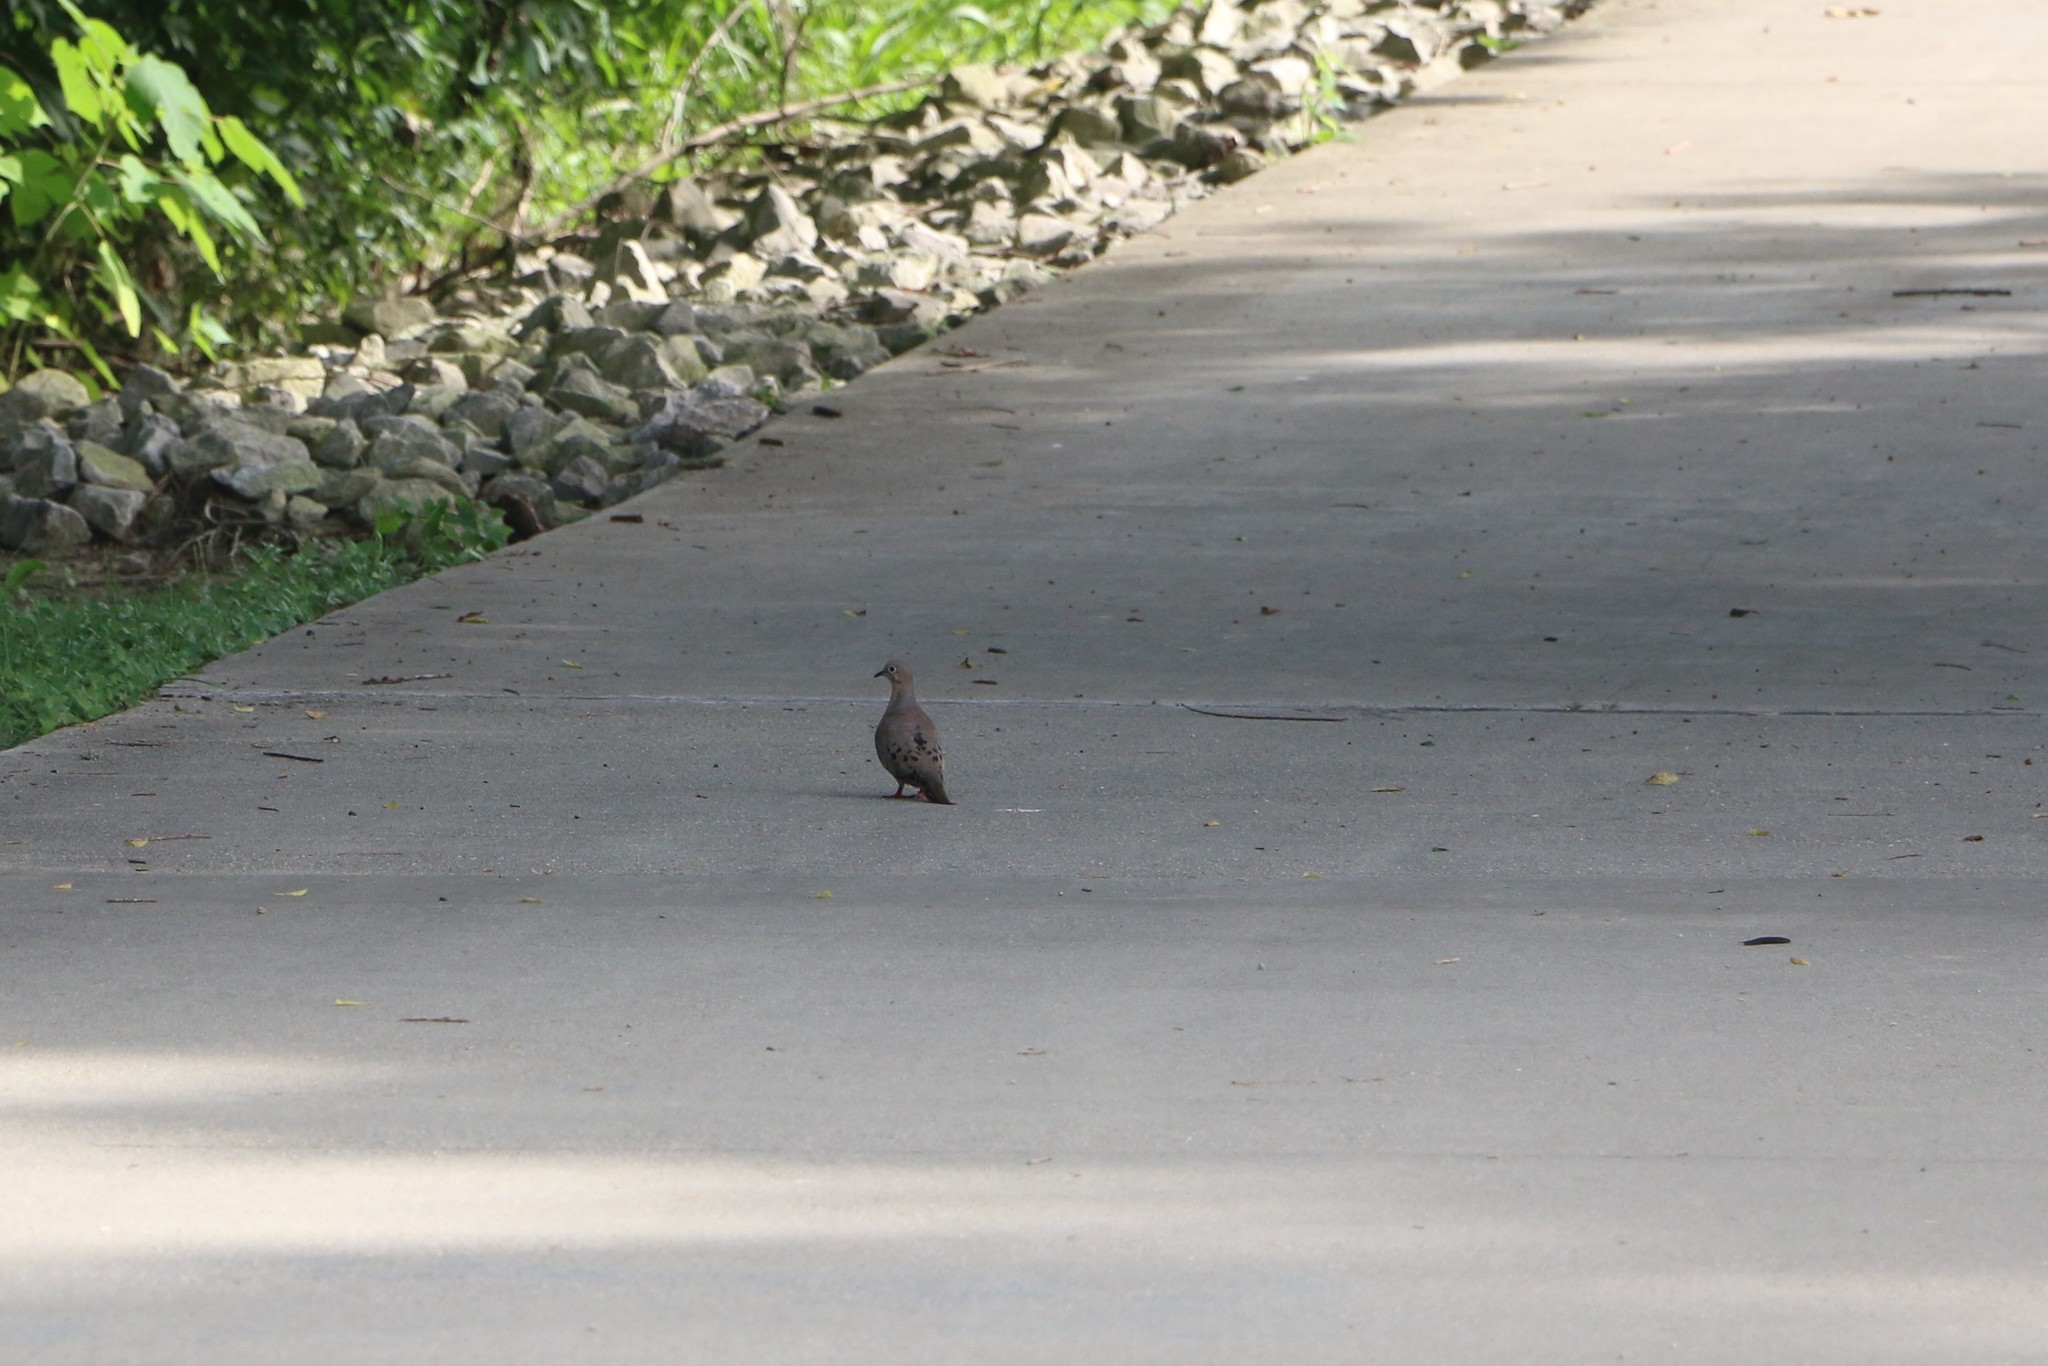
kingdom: Animalia
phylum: Chordata
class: Aves
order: Columbiformes
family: Columbidae
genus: Zenaida
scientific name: Zenaida macroura
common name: Mourning dove
